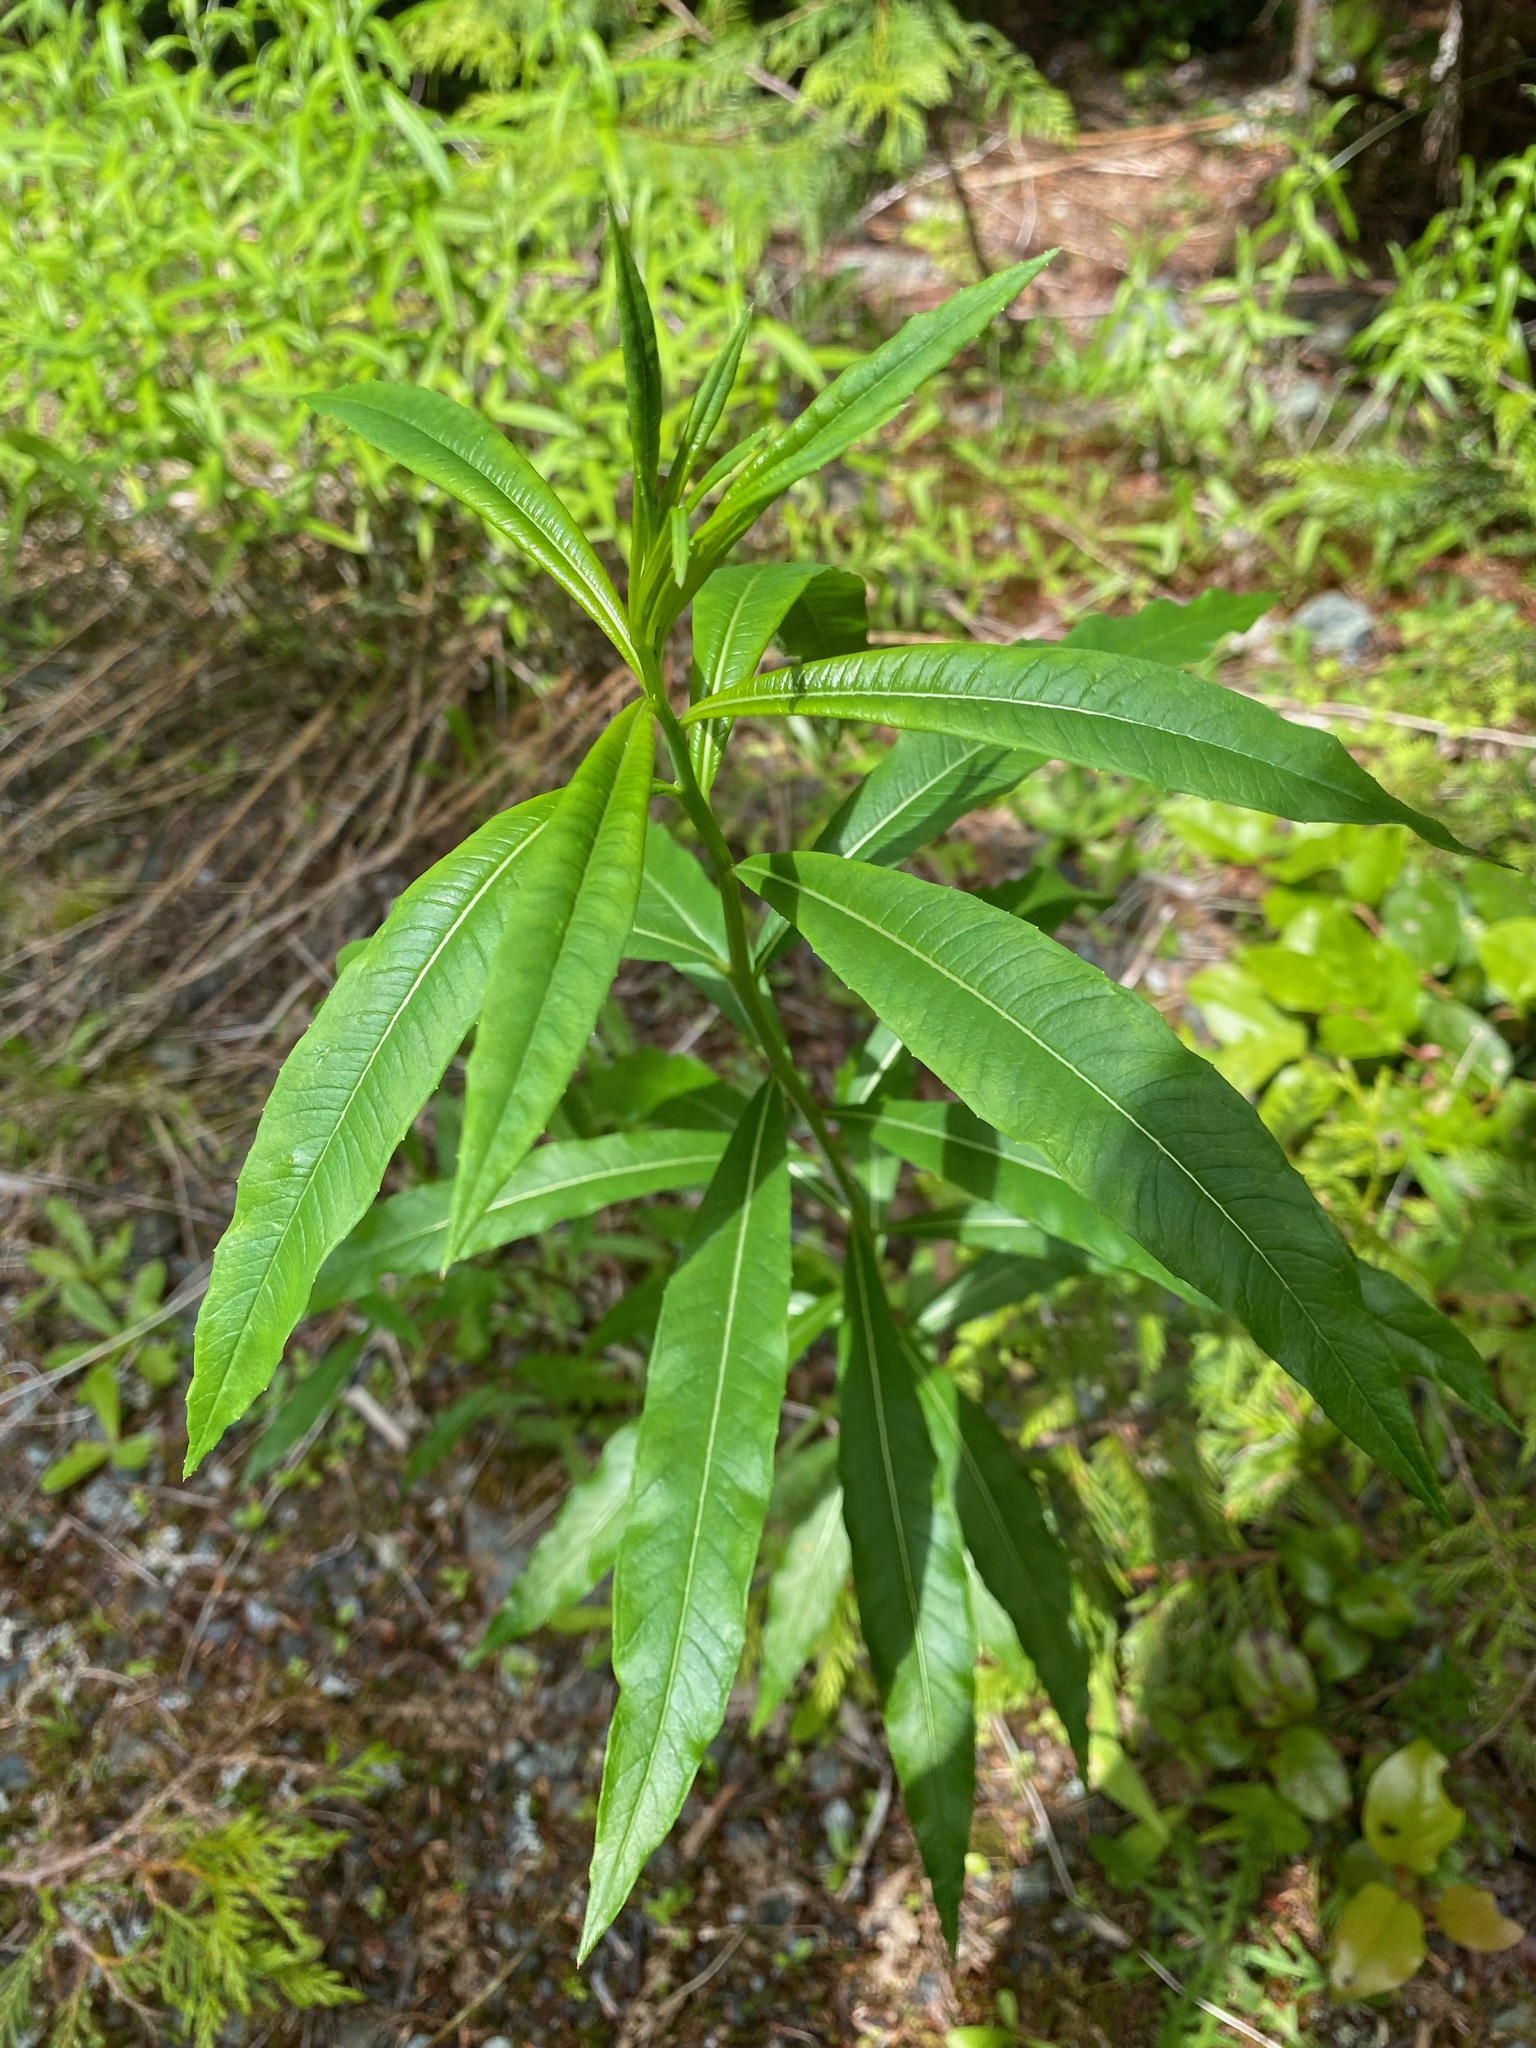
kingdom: Plantae
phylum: Tracheophyta
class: Magnoliopsida
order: Myrtales
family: Onagraceae
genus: Chamaenerion
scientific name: Chamaenerion angustifolium
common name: Fireweed
